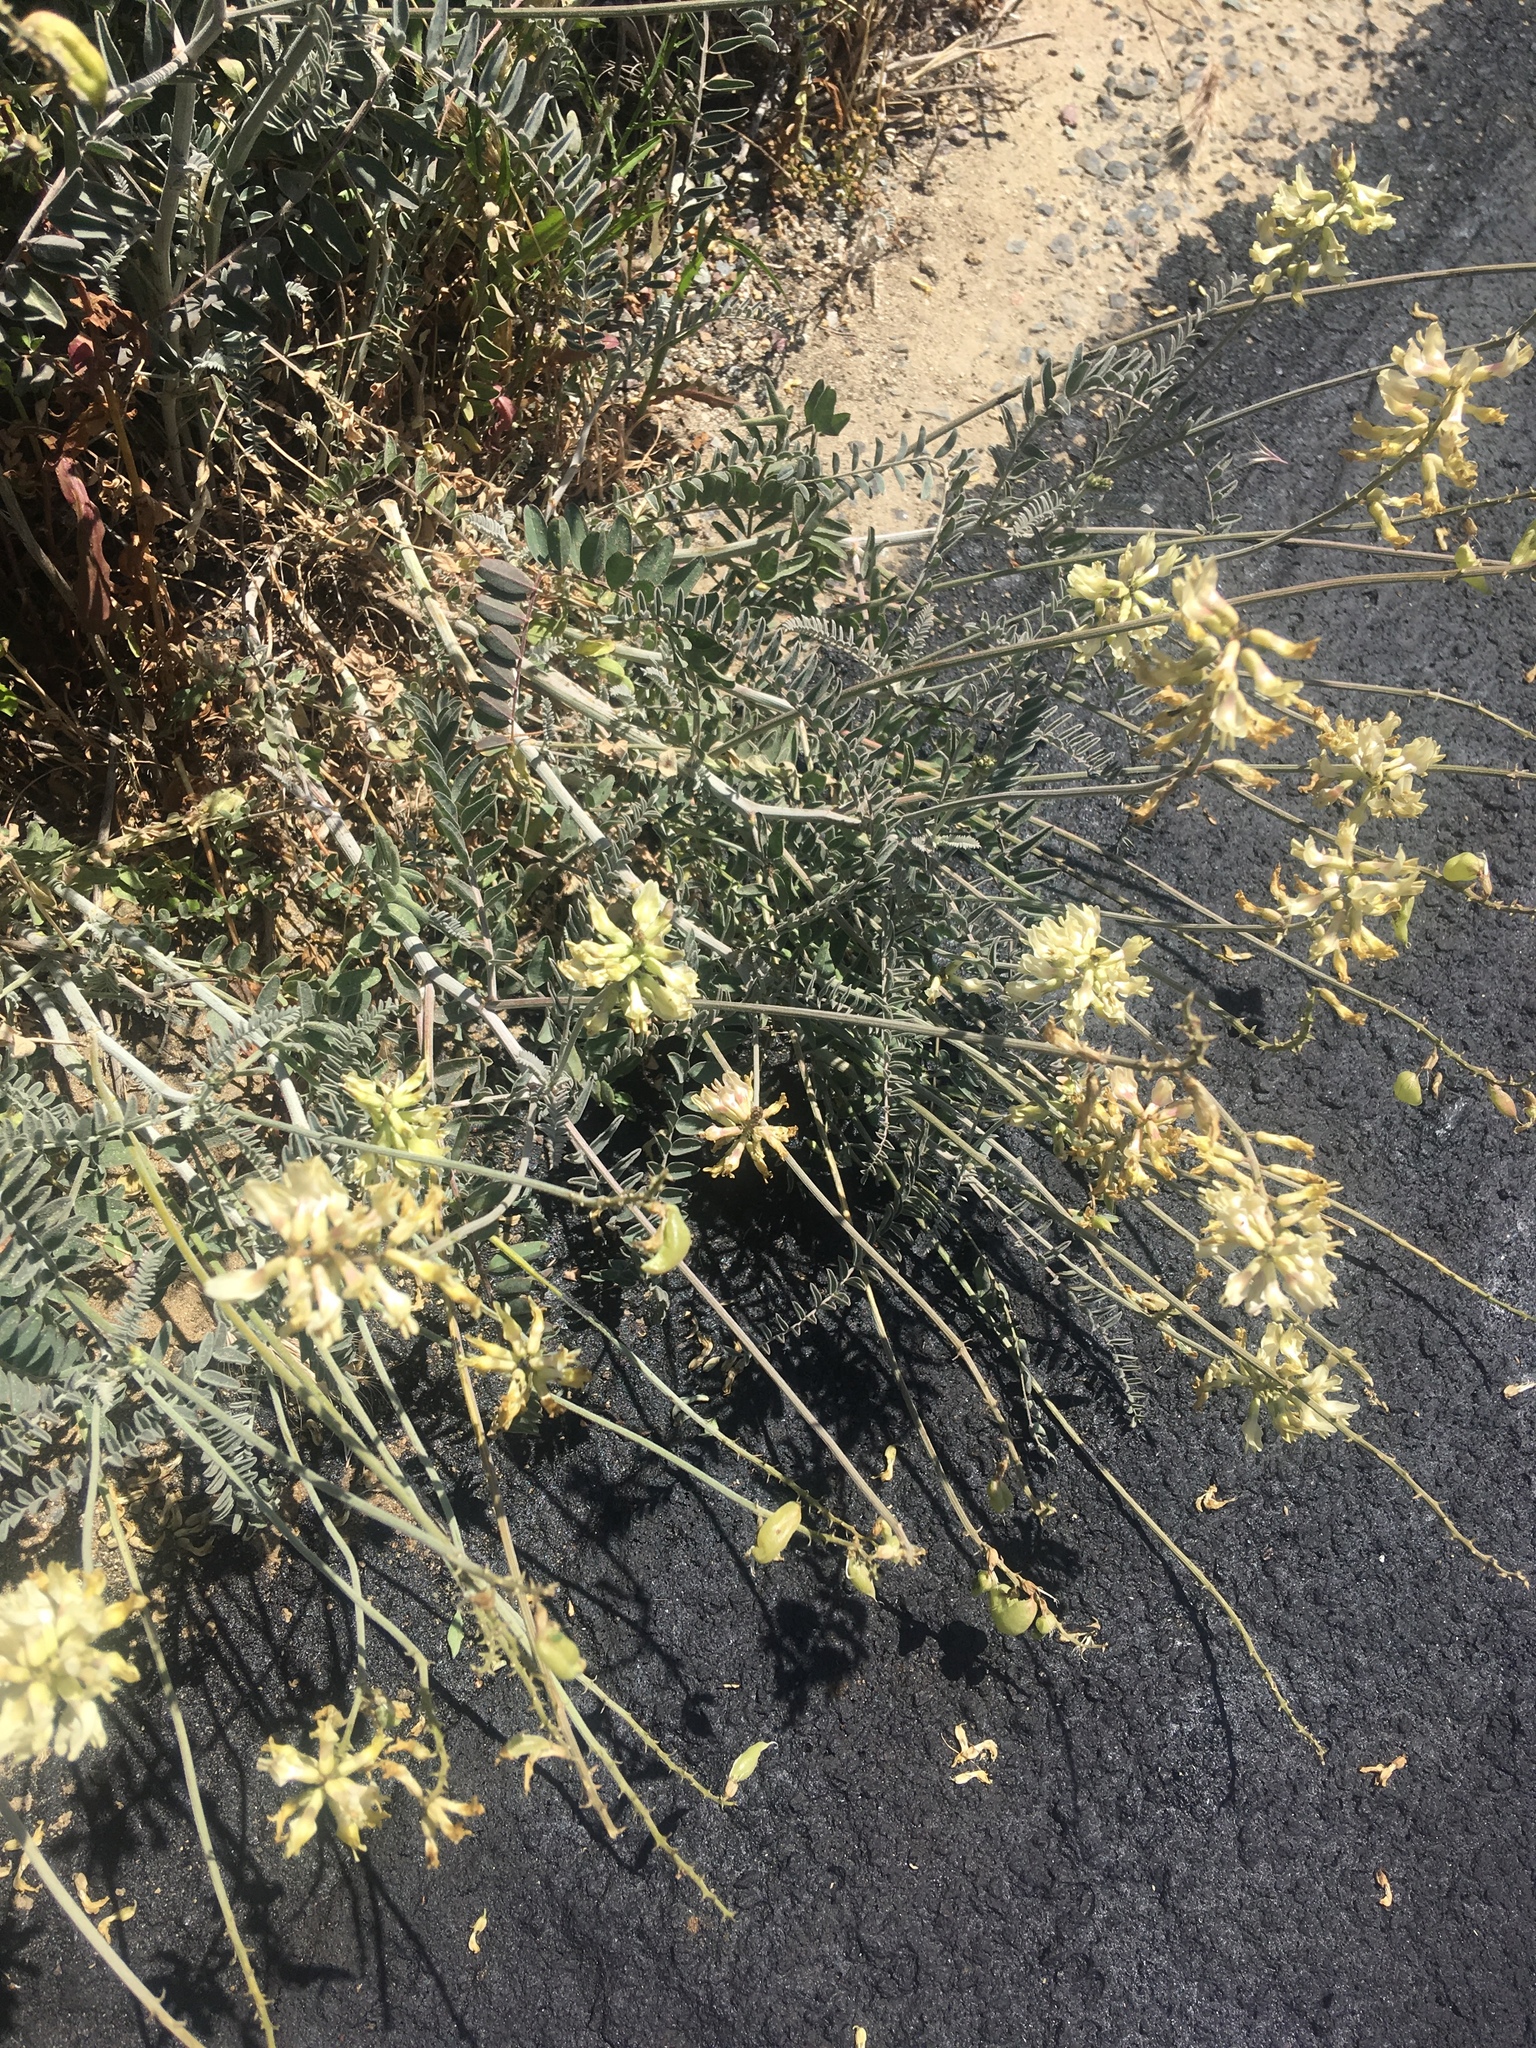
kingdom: Plantae
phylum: Tracheophyta
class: Magnoliopsida
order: Fabales
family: Fabaceae
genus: Astragalus
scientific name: Astragalus trichopodus
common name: Santa barbara milk-vetch
